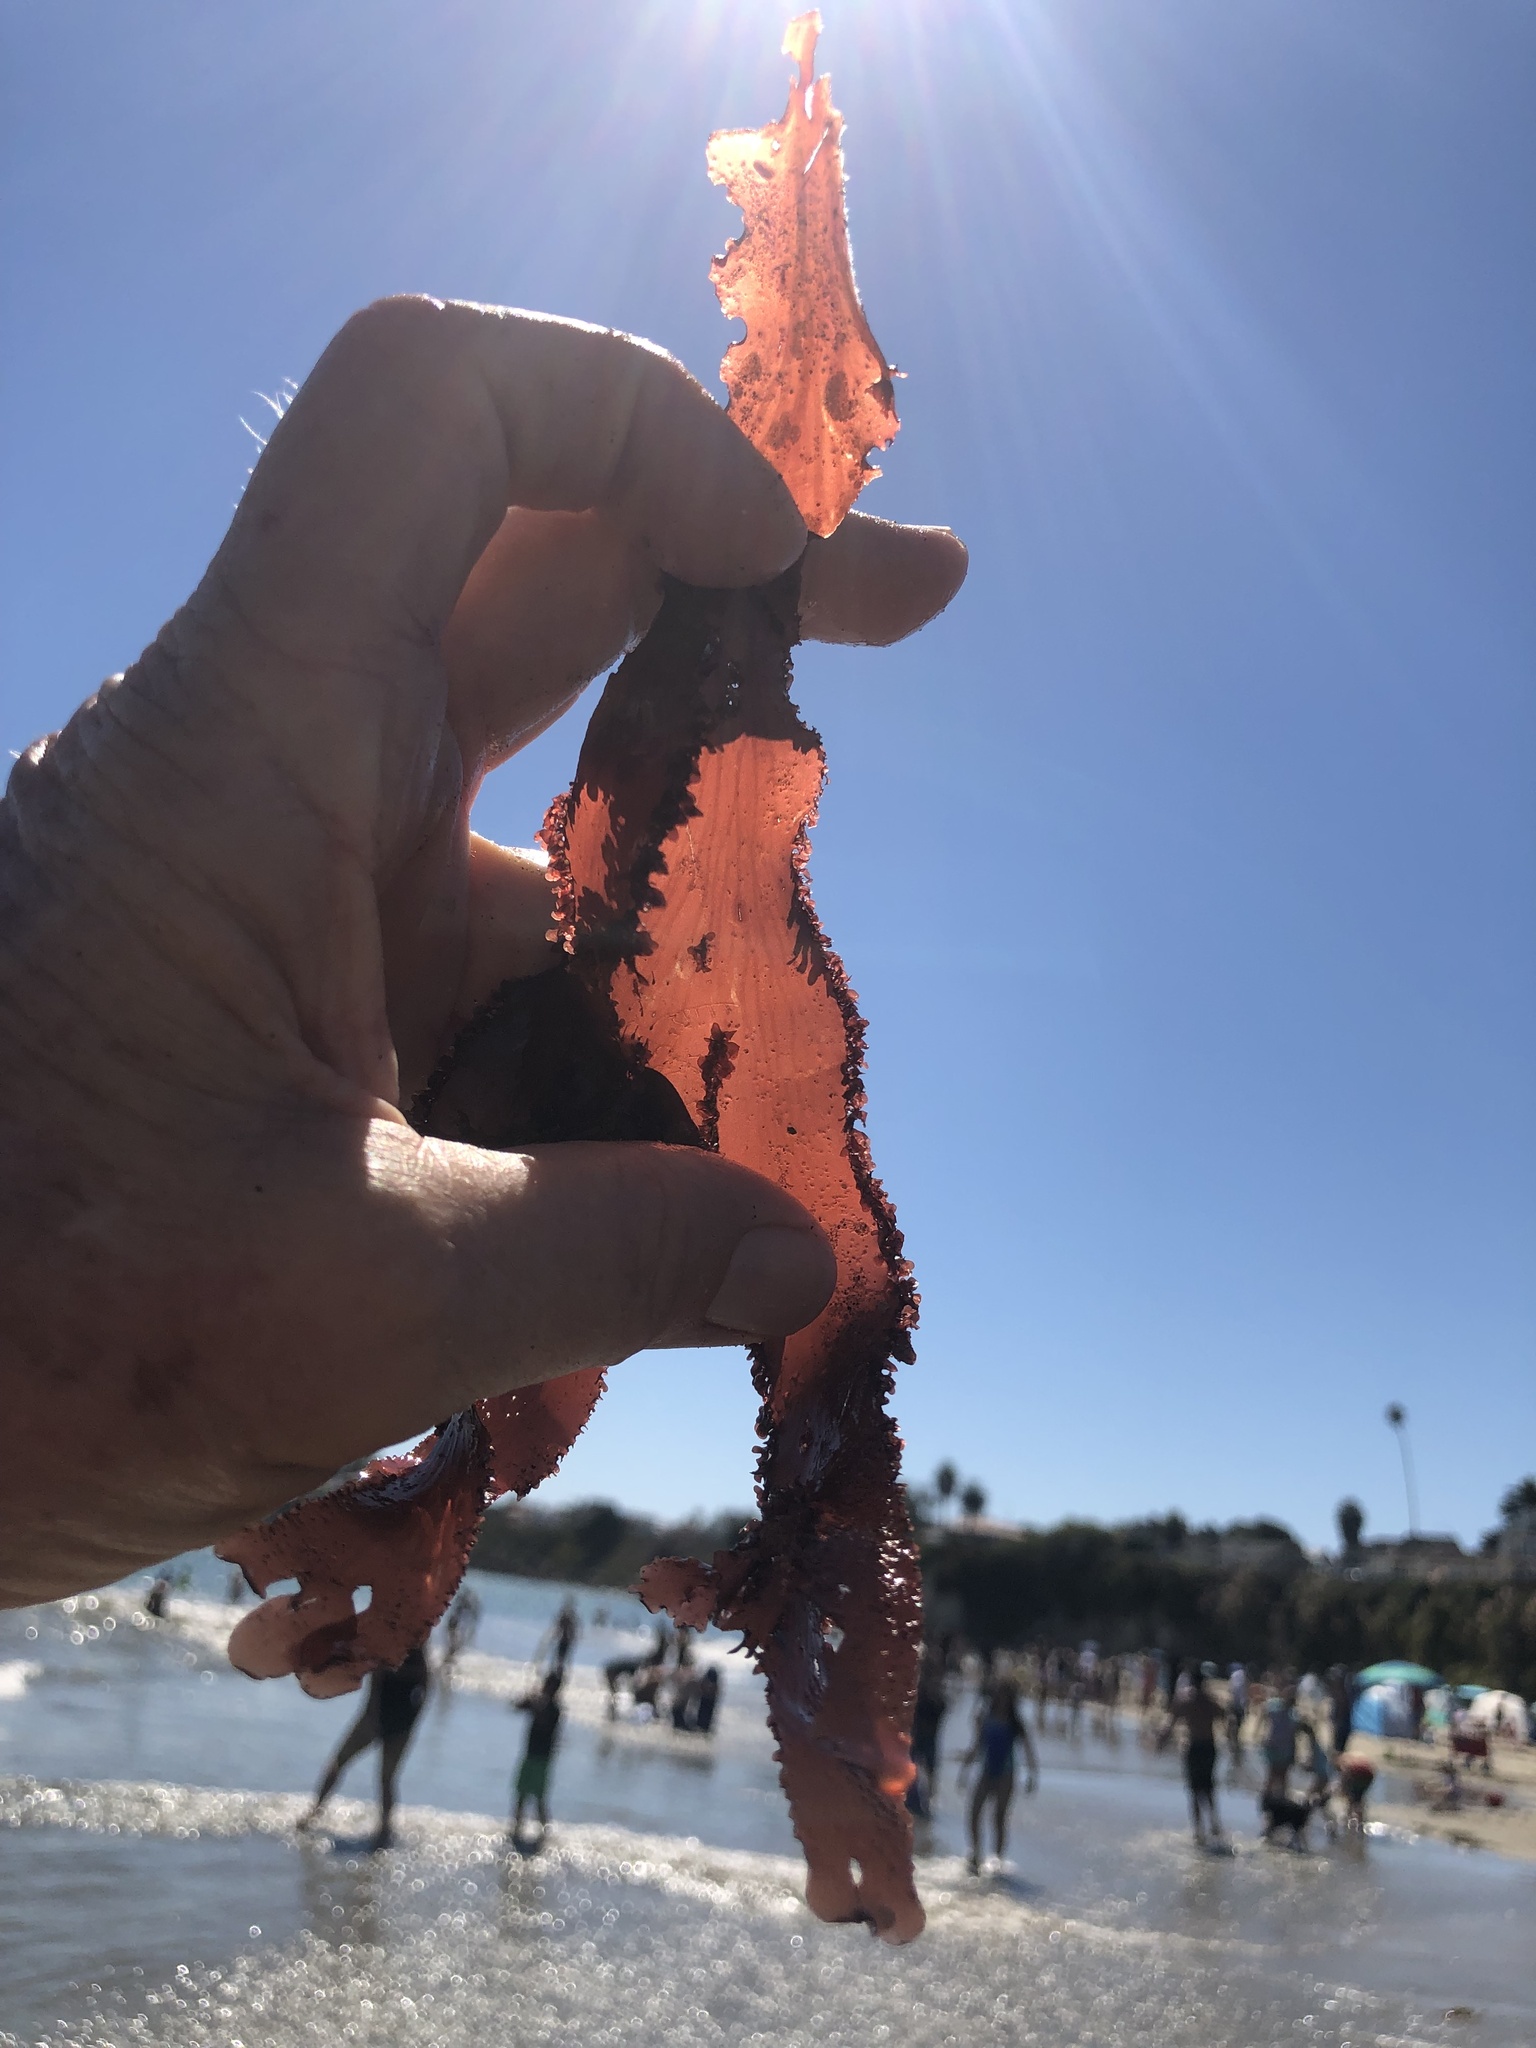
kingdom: Plantae
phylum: Rhodophyta
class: Florideophyceae
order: Ceramiales
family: Delesseriaceae
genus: Cryptopleura
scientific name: Cryptopleura ruprechtiana
